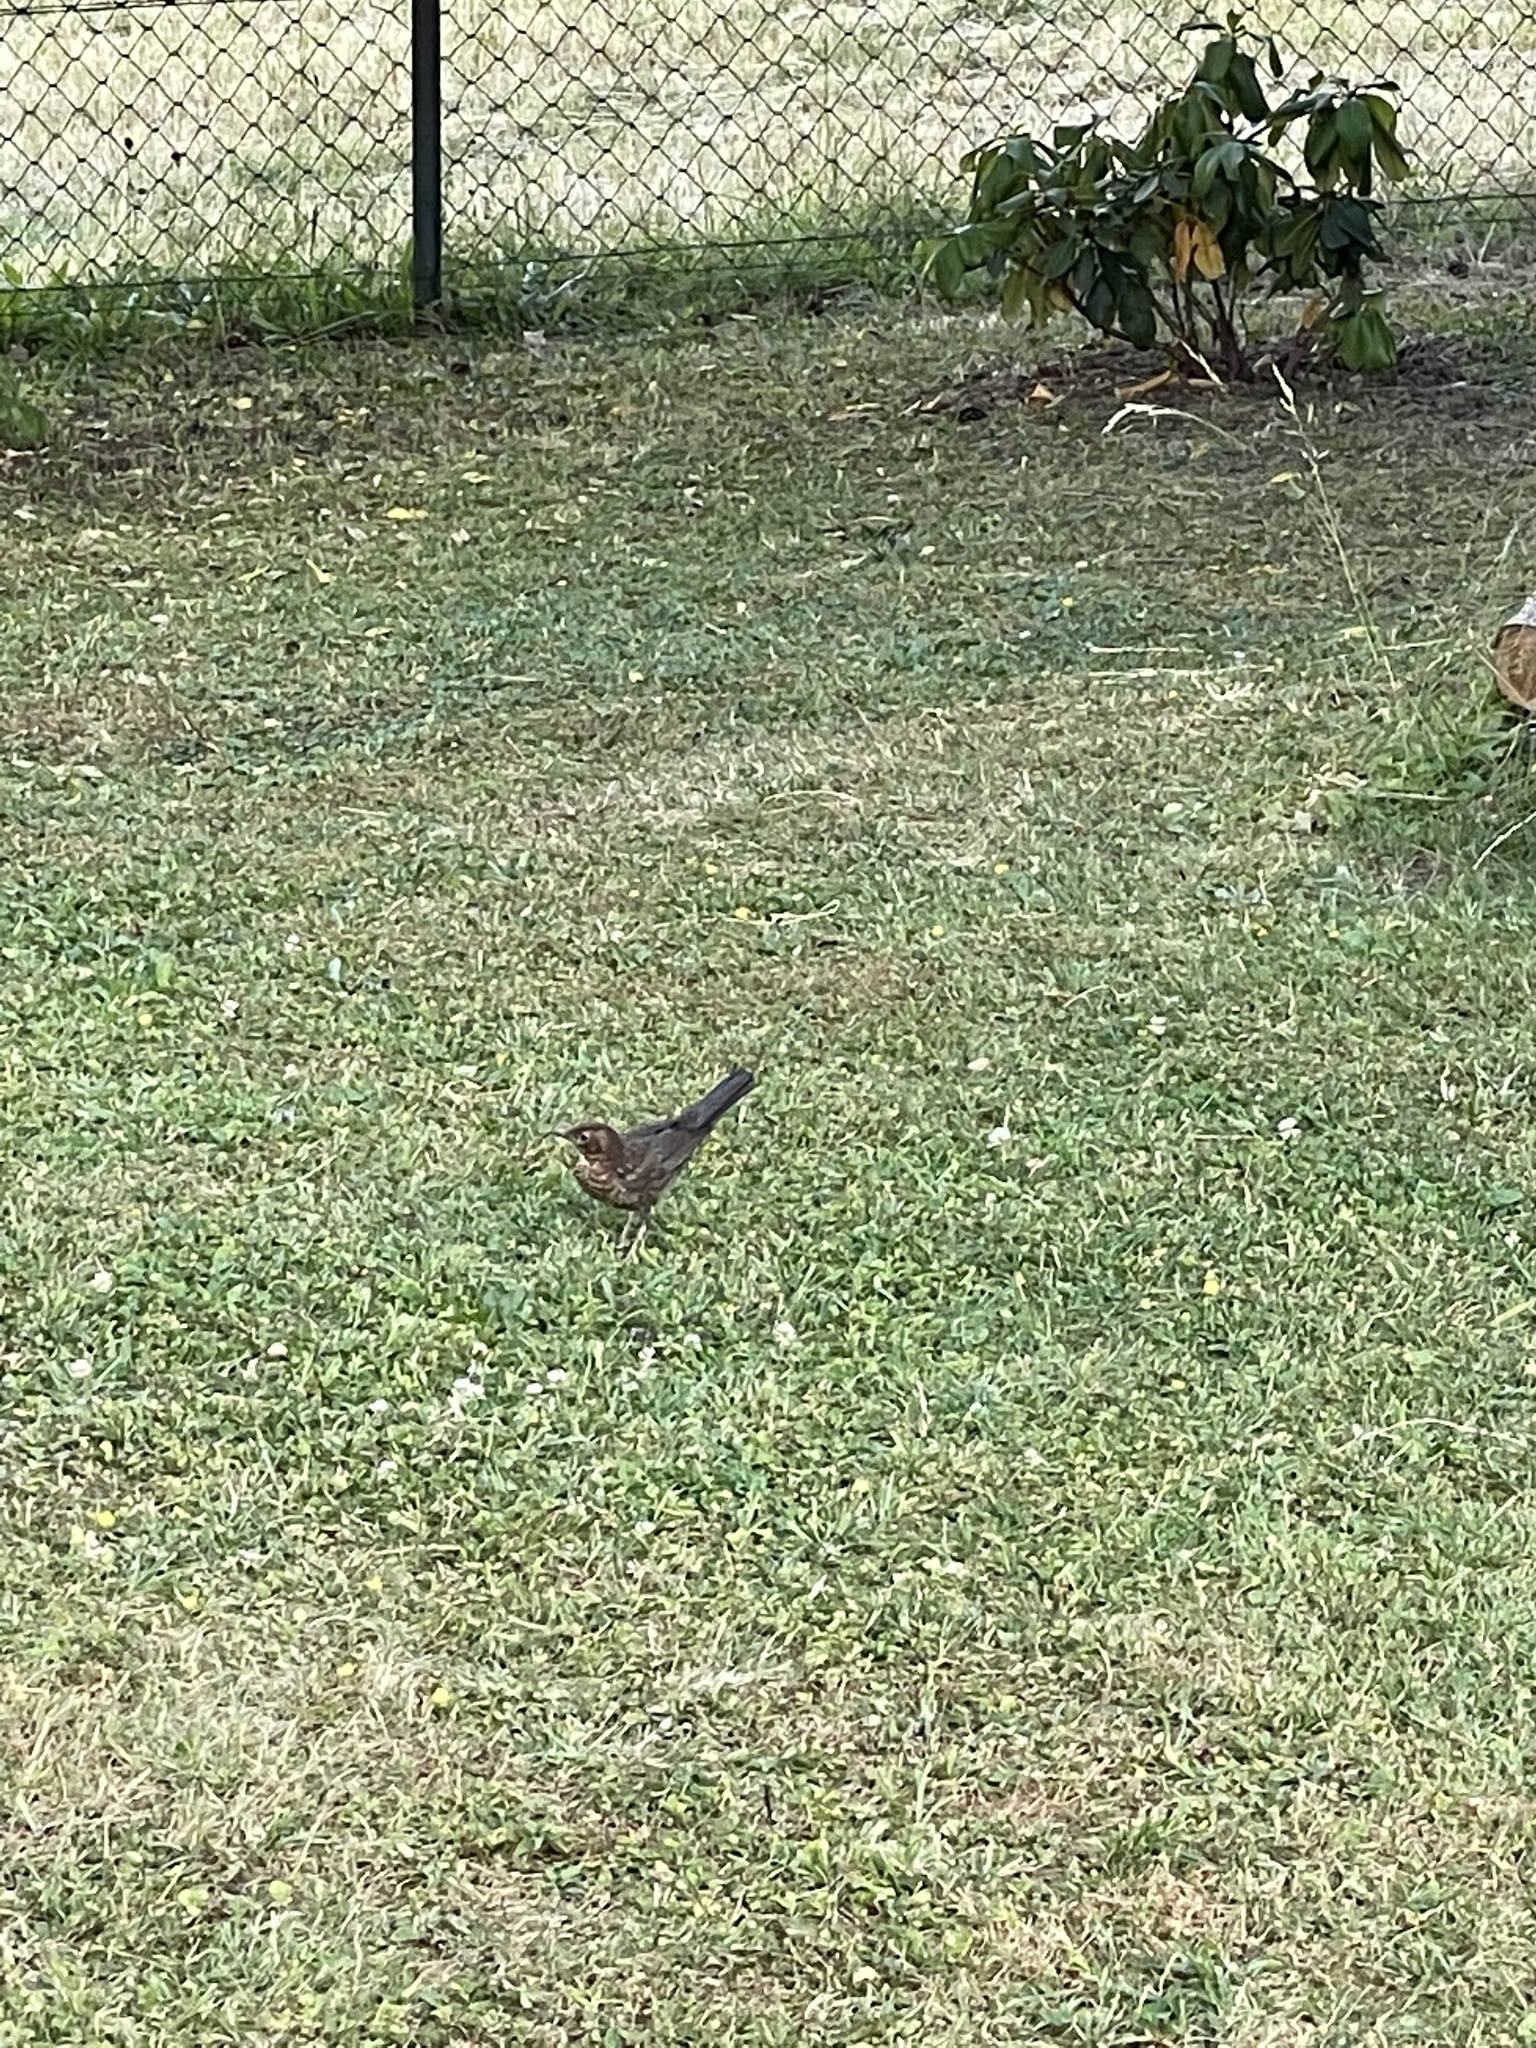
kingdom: Animalia
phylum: Chordata
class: Aves
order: Passeriformes
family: Turdidae
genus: Turdus
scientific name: Turdus merula
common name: Common blackbird
